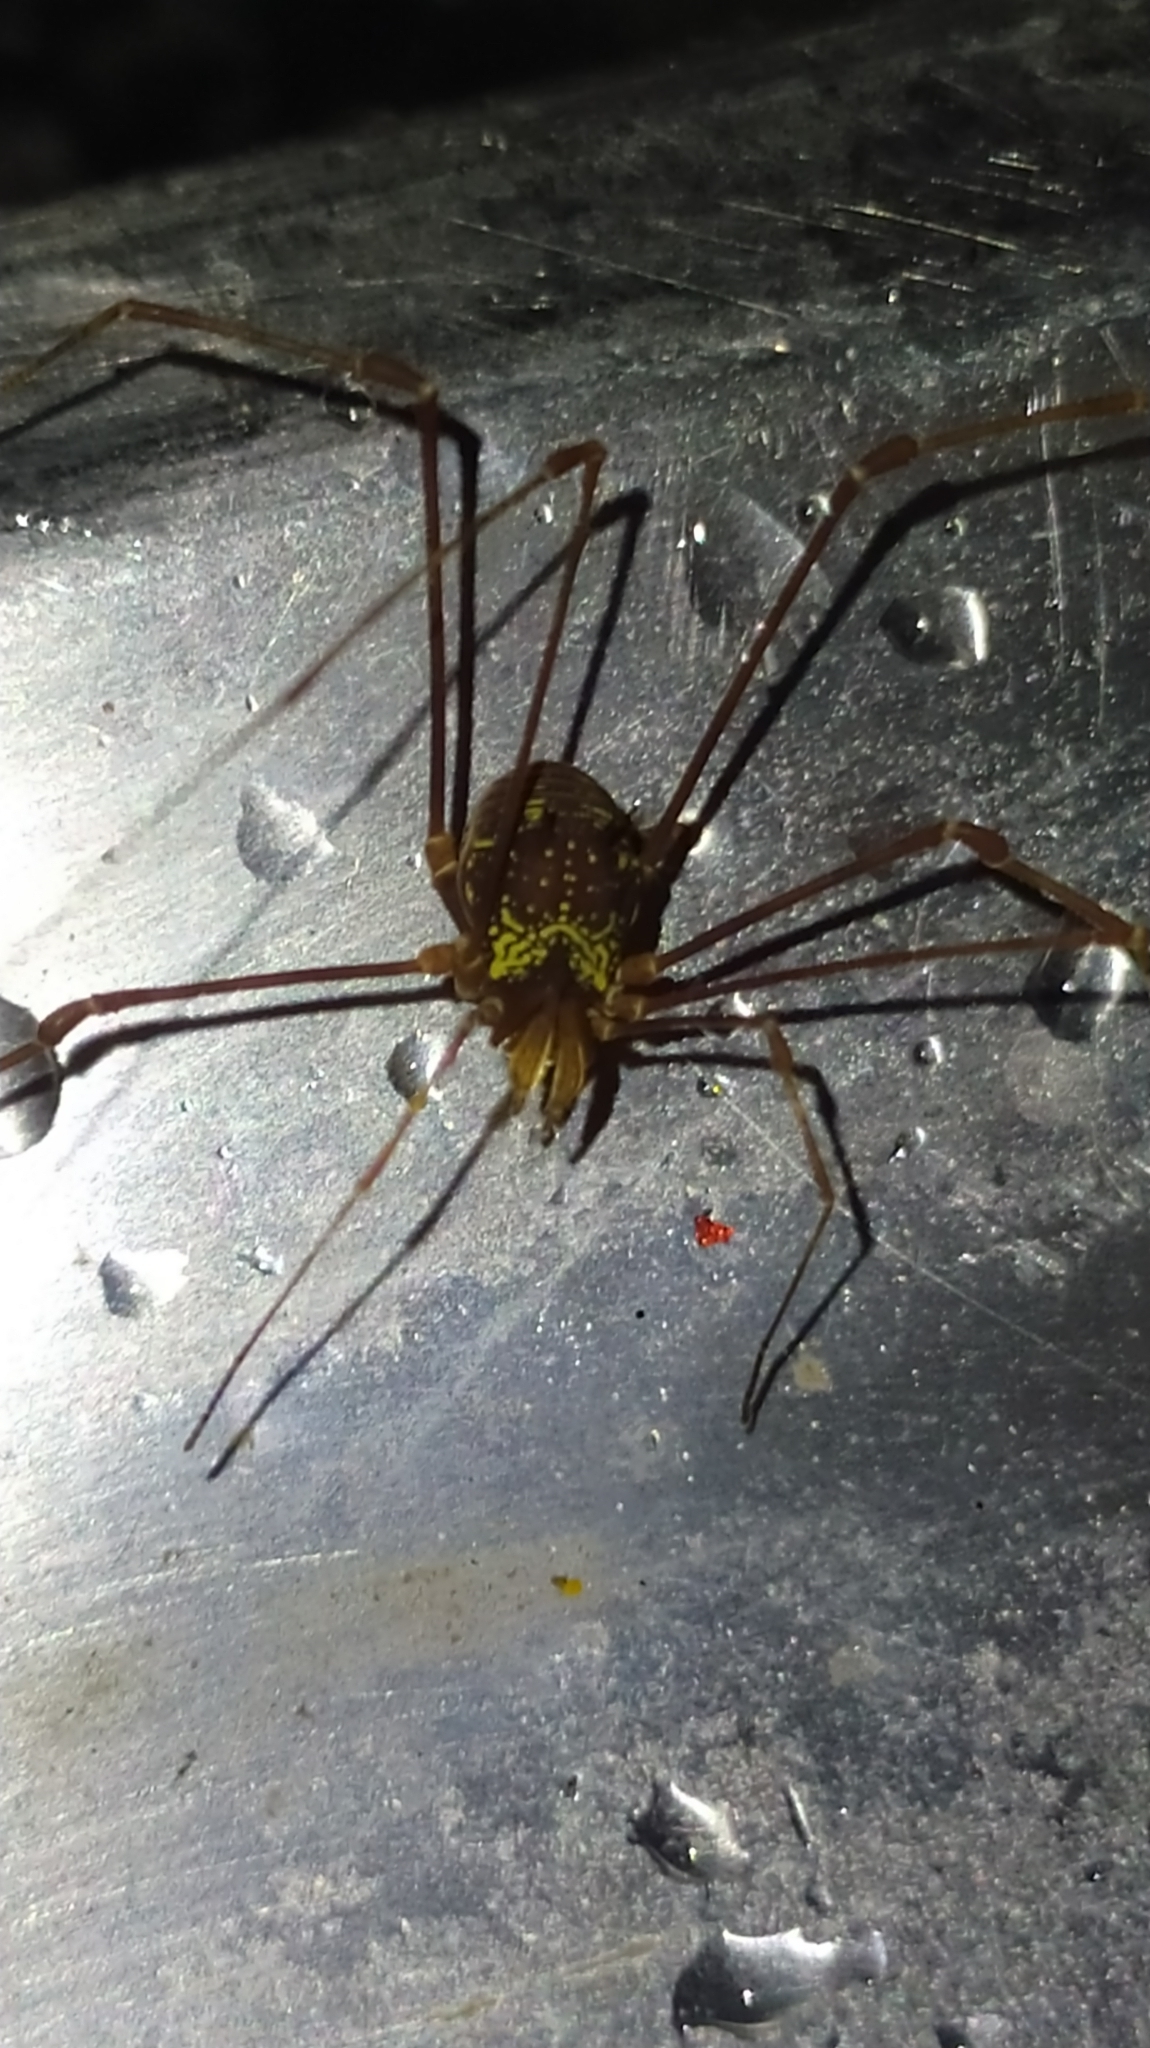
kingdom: Animalia
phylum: Arthropoda
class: Arachnida
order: Opiliones
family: Cosmetidae
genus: Paecilaema
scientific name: Paecilaema c-insignitum
